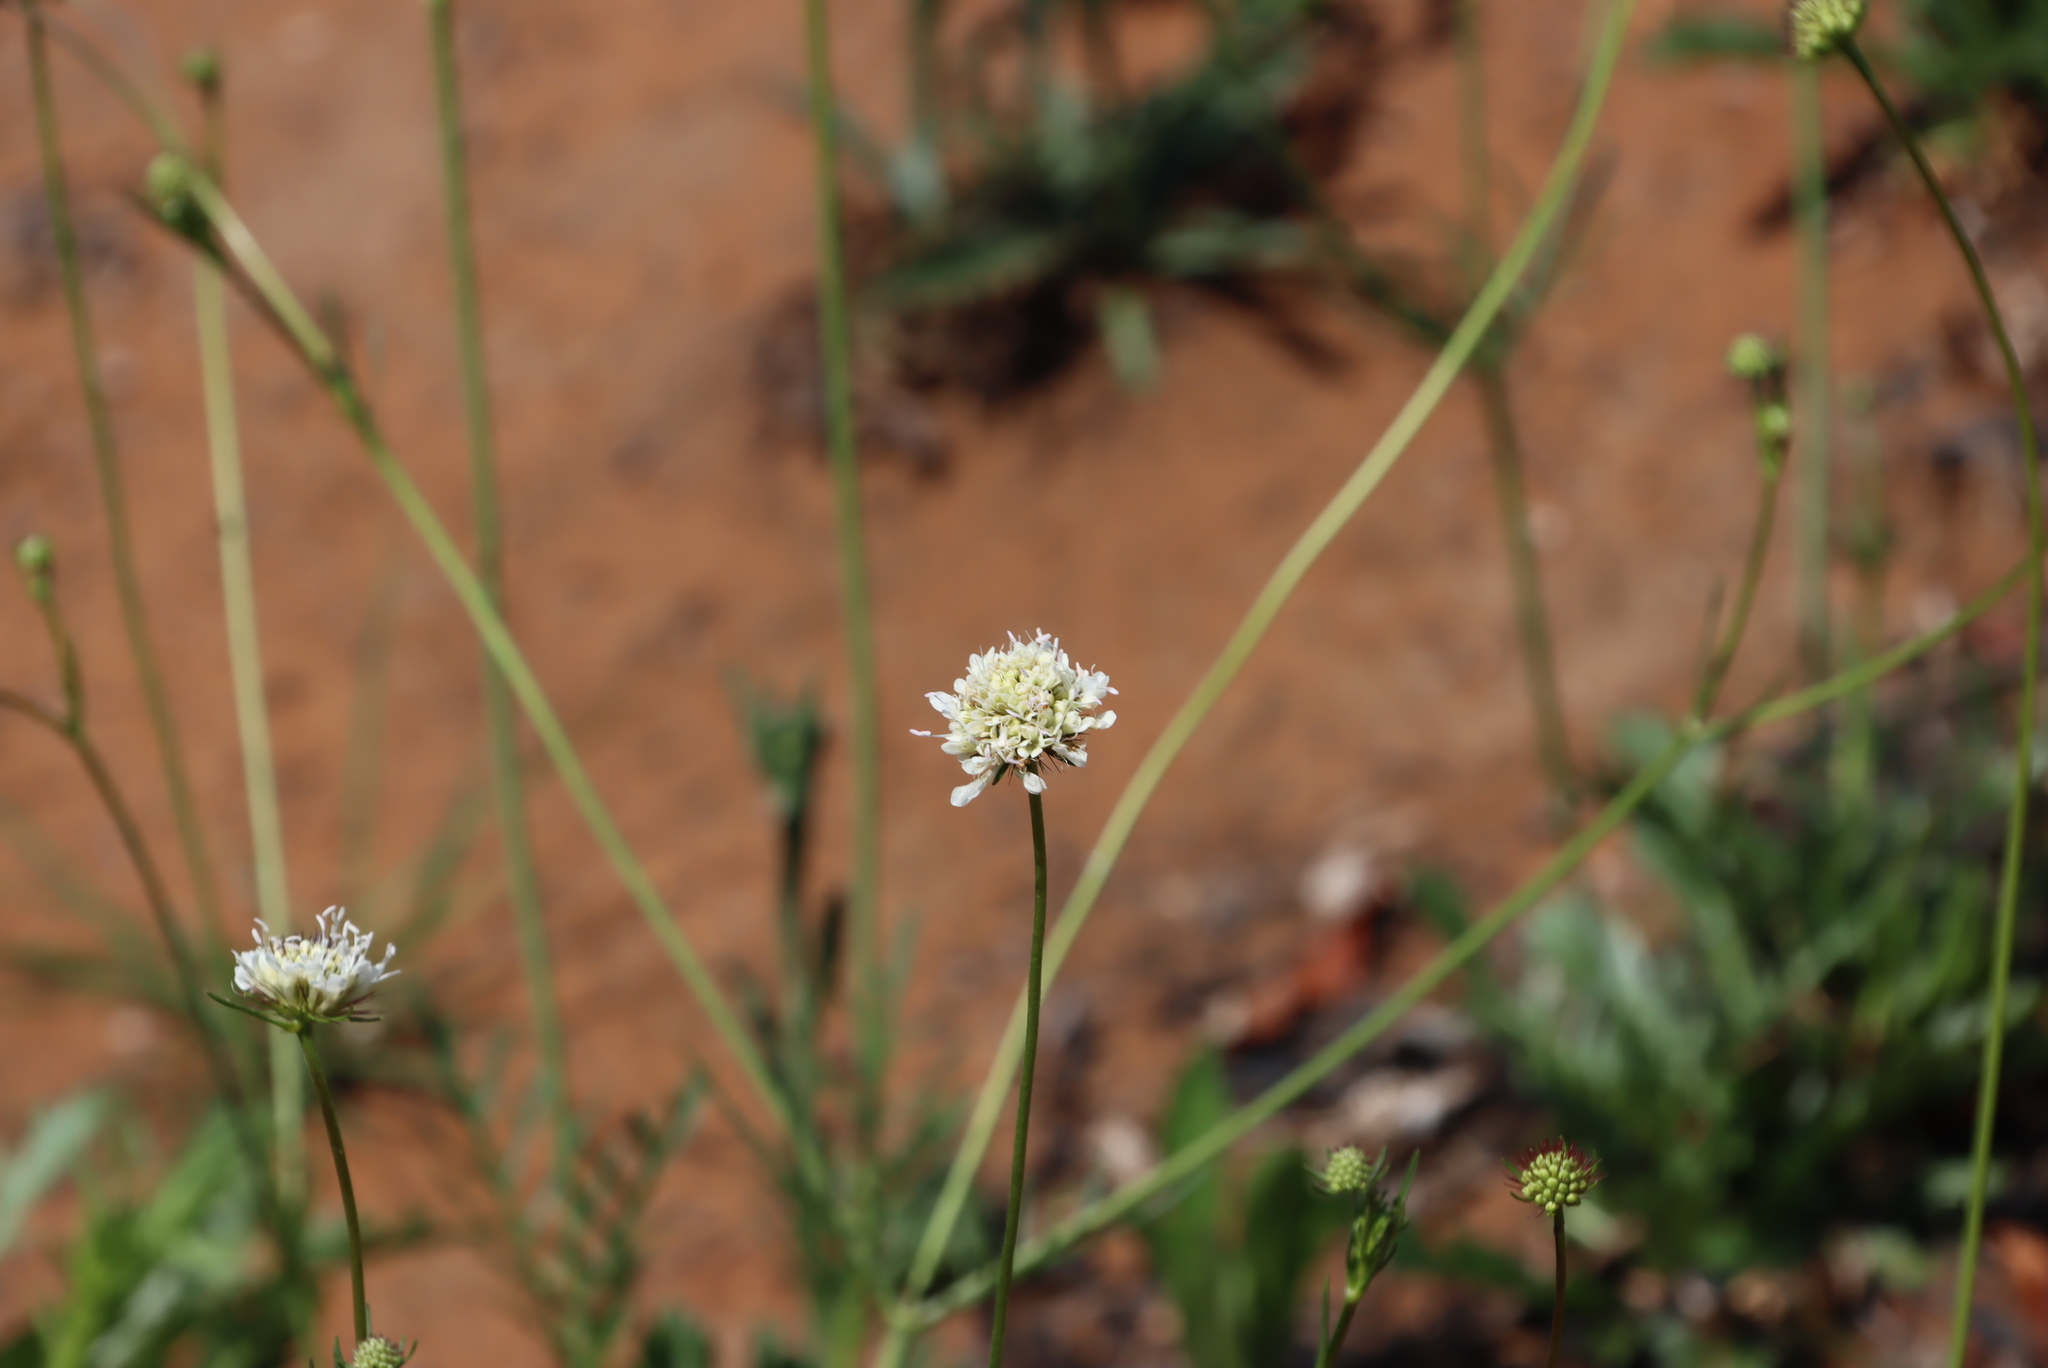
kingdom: Plantae
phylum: Tracheophyta
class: Magnoliopsida
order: Dipsacales
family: Caprifoliaceae
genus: Scabiosa
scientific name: Scabiosa columbaria
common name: Small scabious
